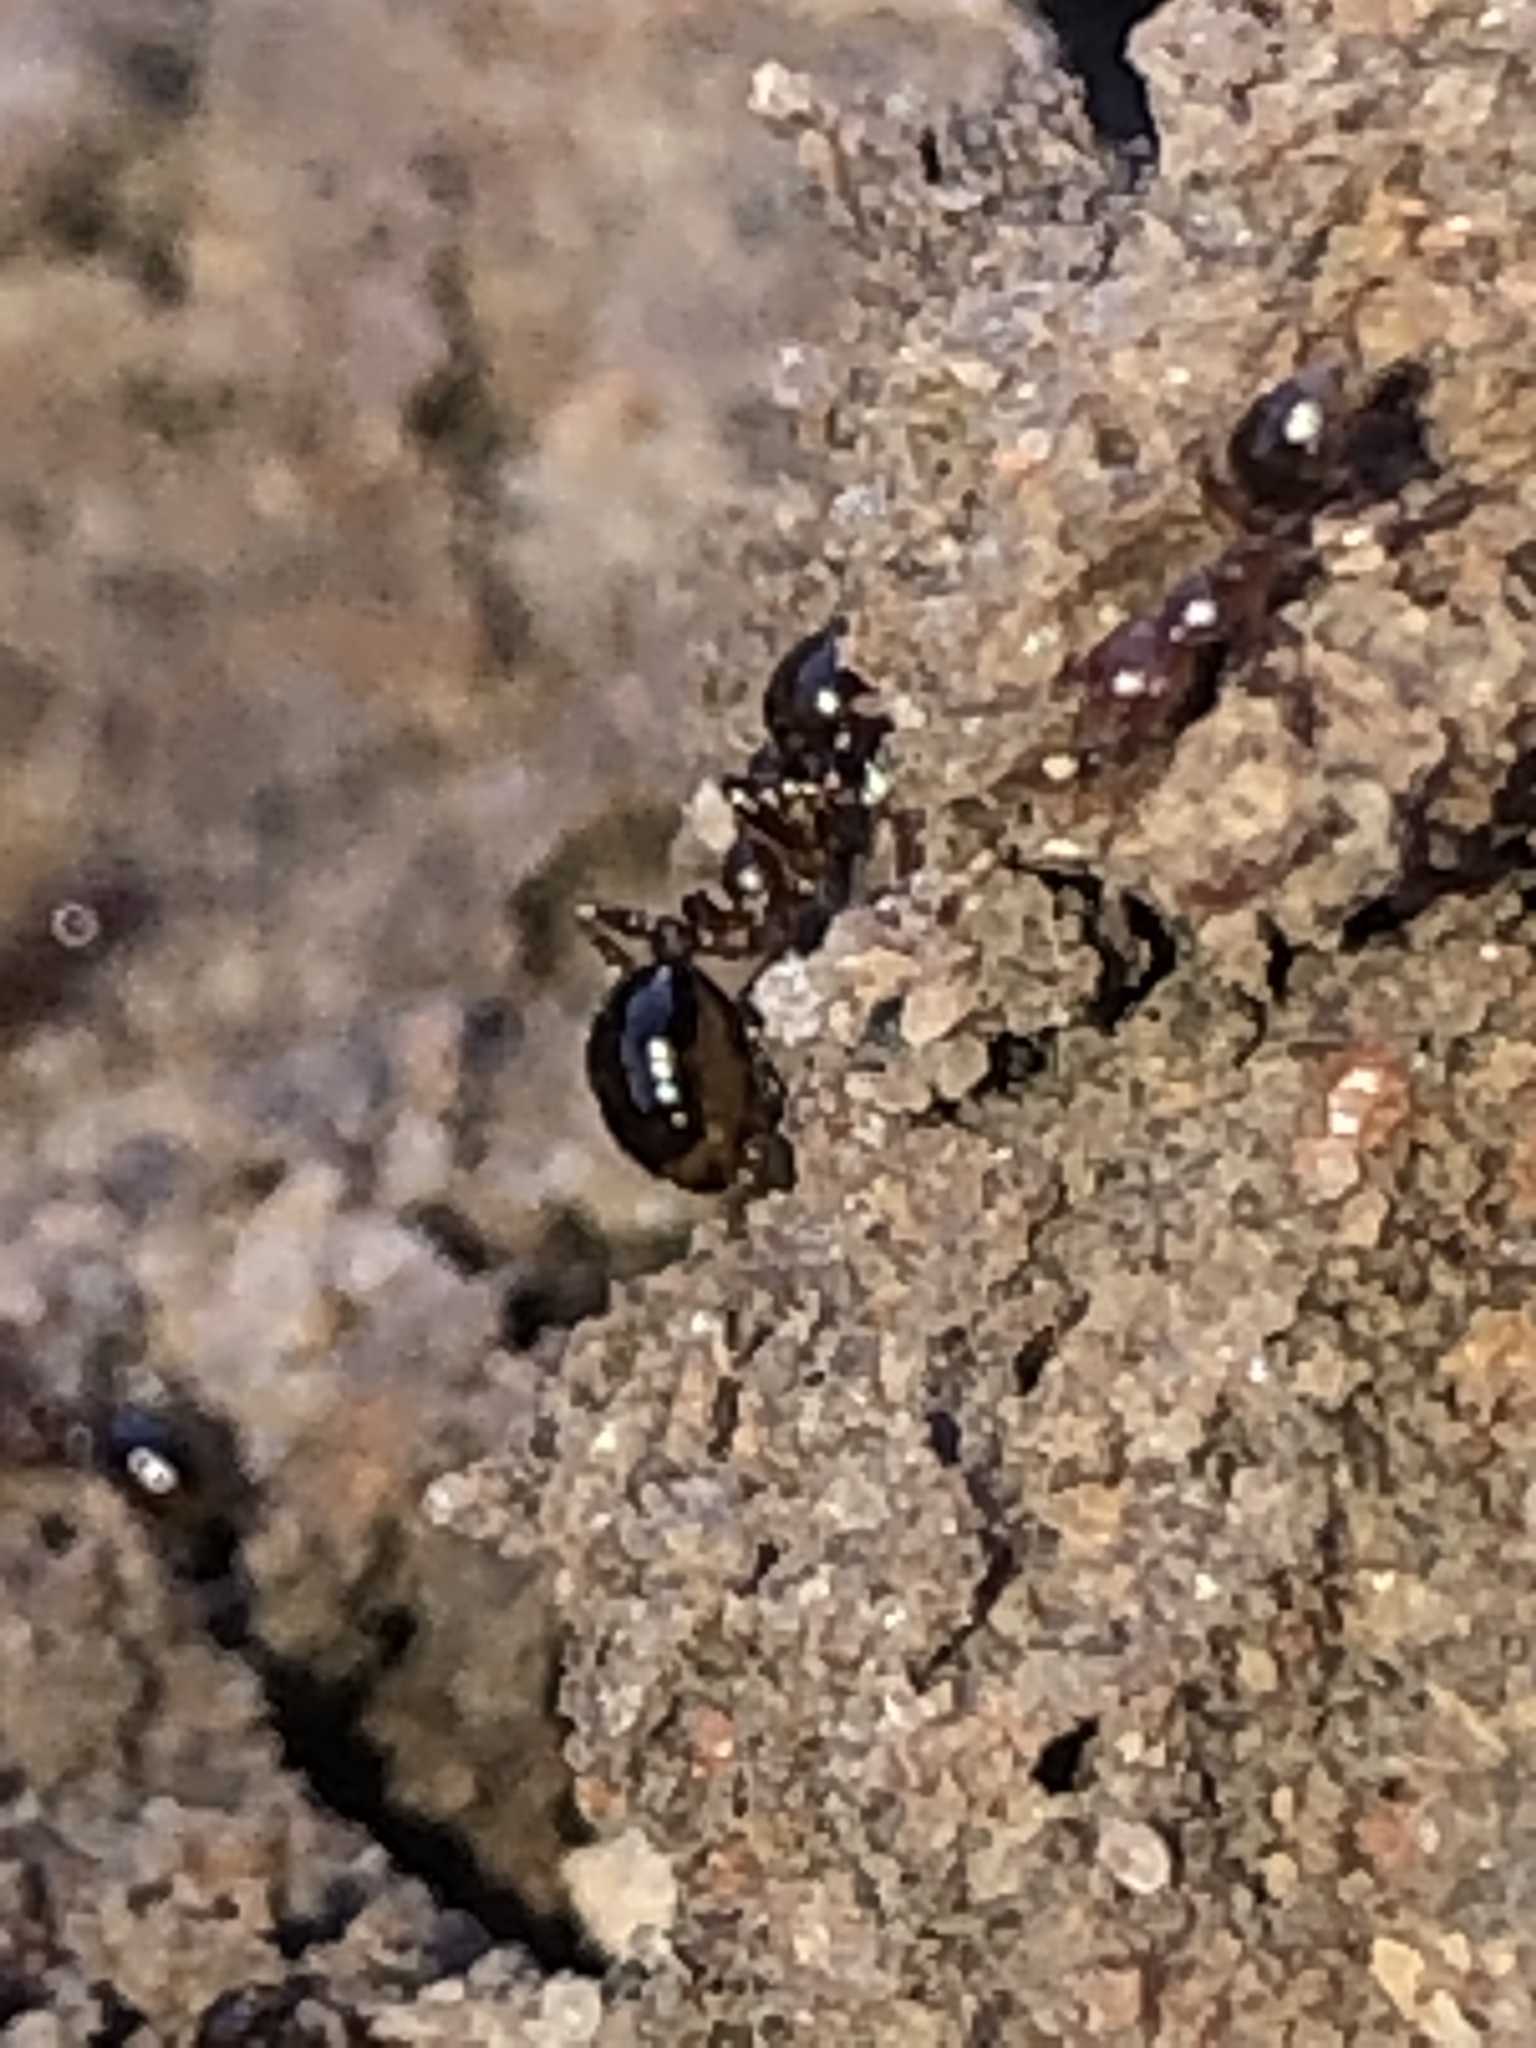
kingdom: Animalia
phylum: Arthropoda
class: Insecta
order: Hymenoptera
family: Formicidae
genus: Solenopsis
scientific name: Solenopsis invicta
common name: Red imported fire ant
